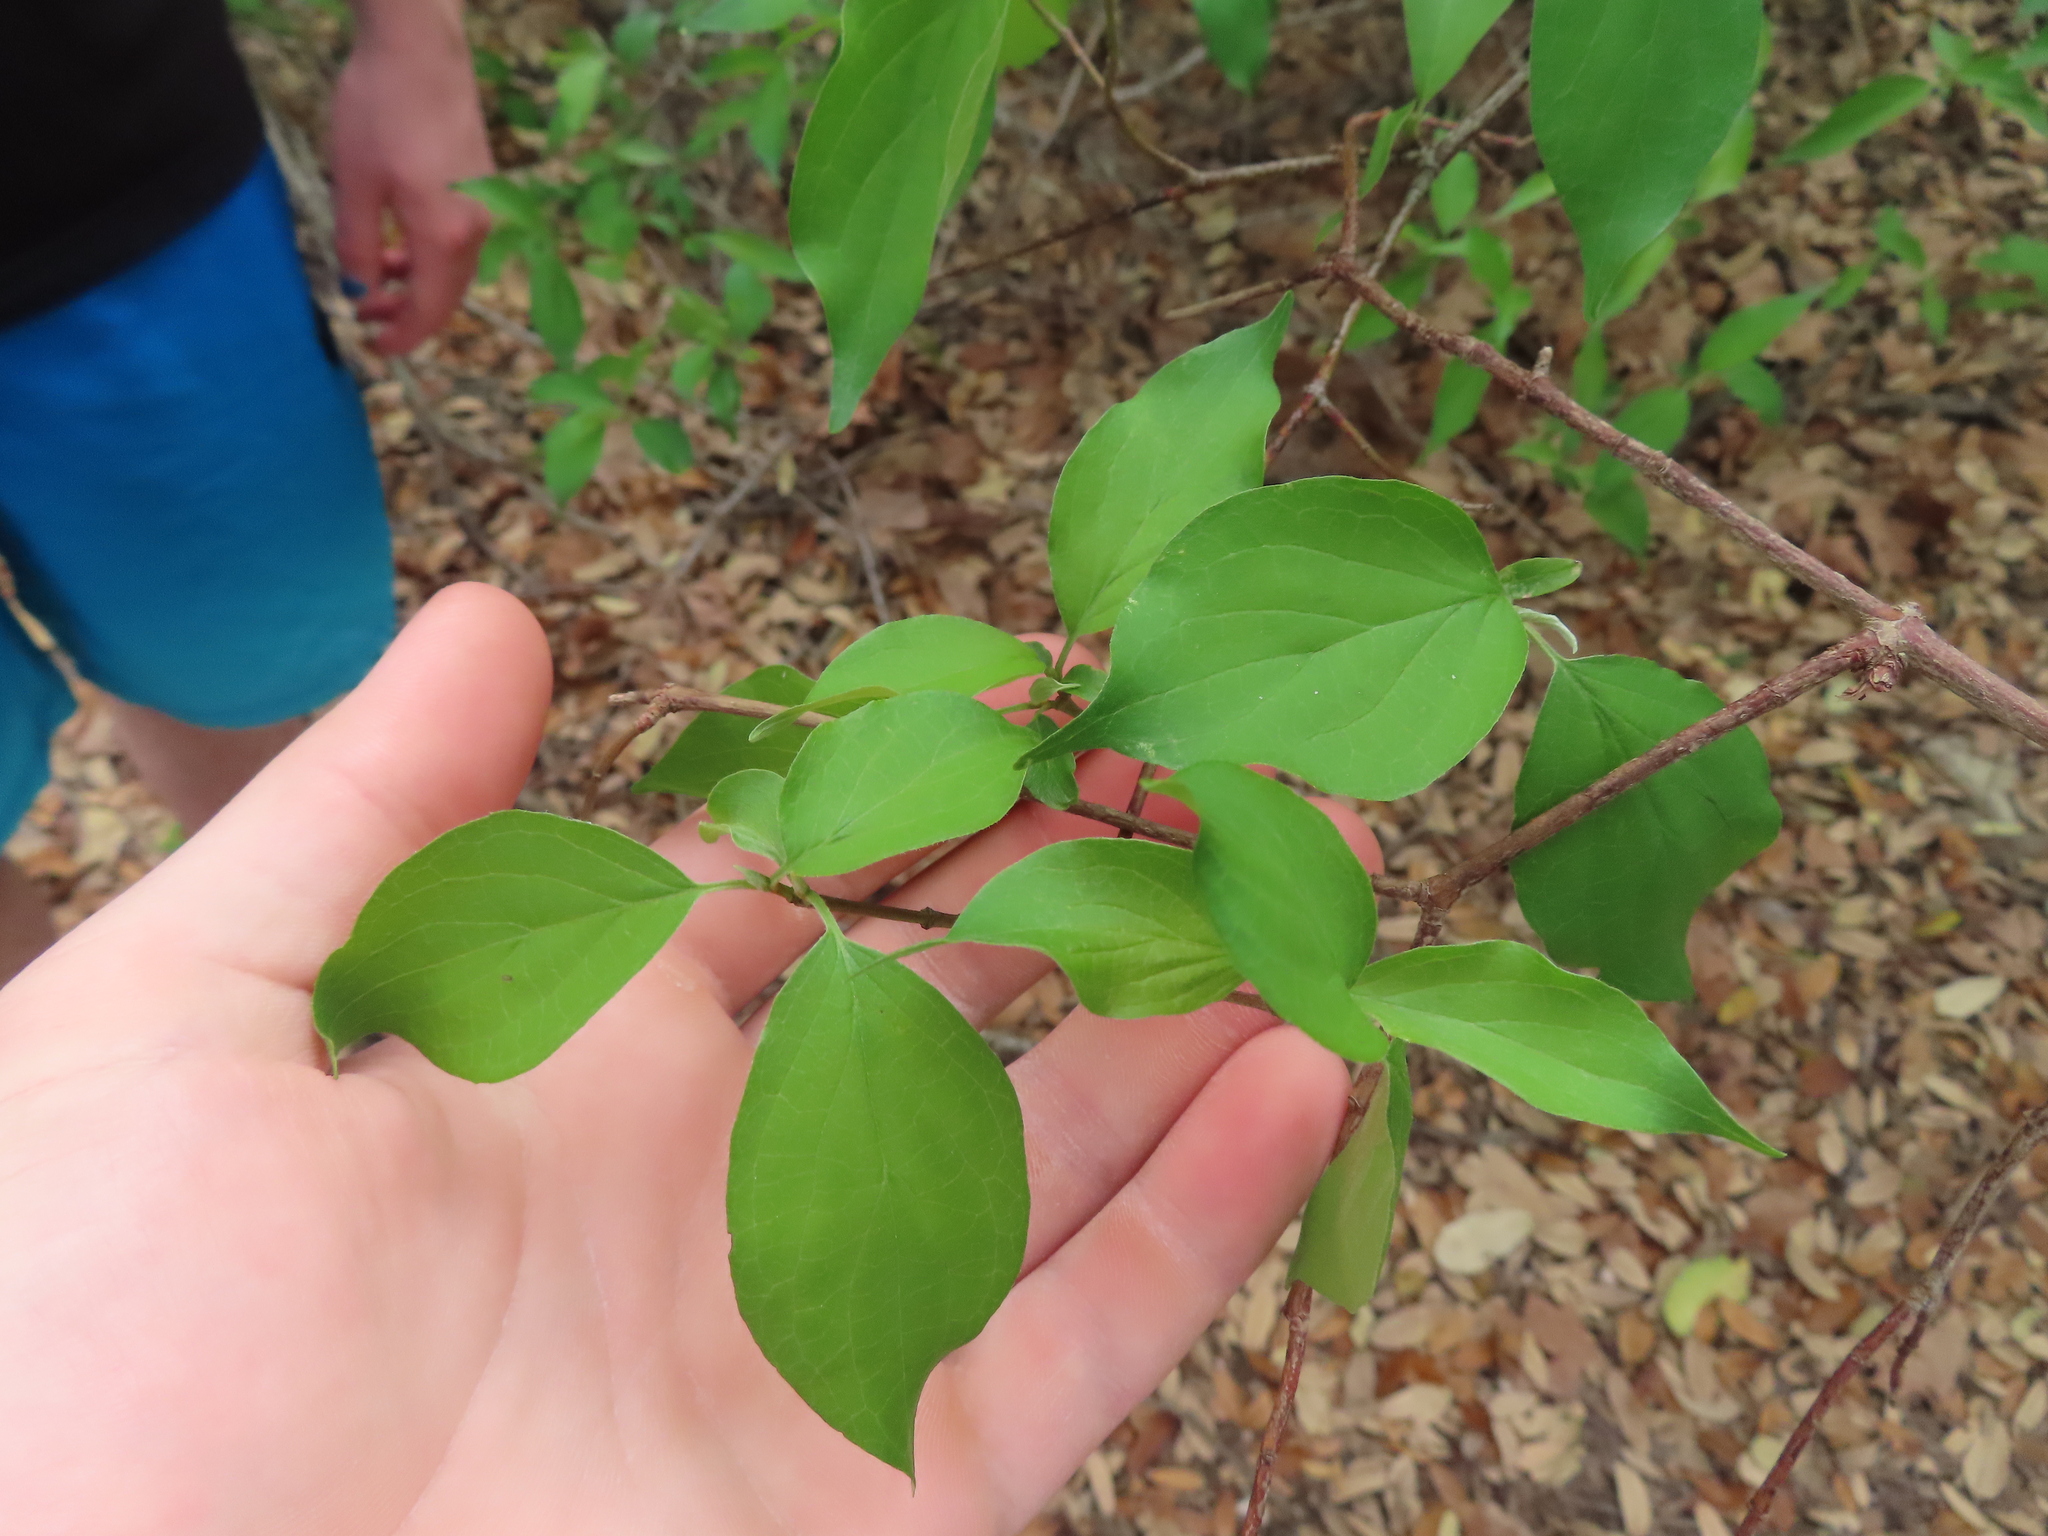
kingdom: Plantae
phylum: Tracheophyta
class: Magnoliopsida
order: Cornales
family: Cornaceae
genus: Cornus
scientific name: Cornus drummondii
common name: Rough-leaf dogwood
